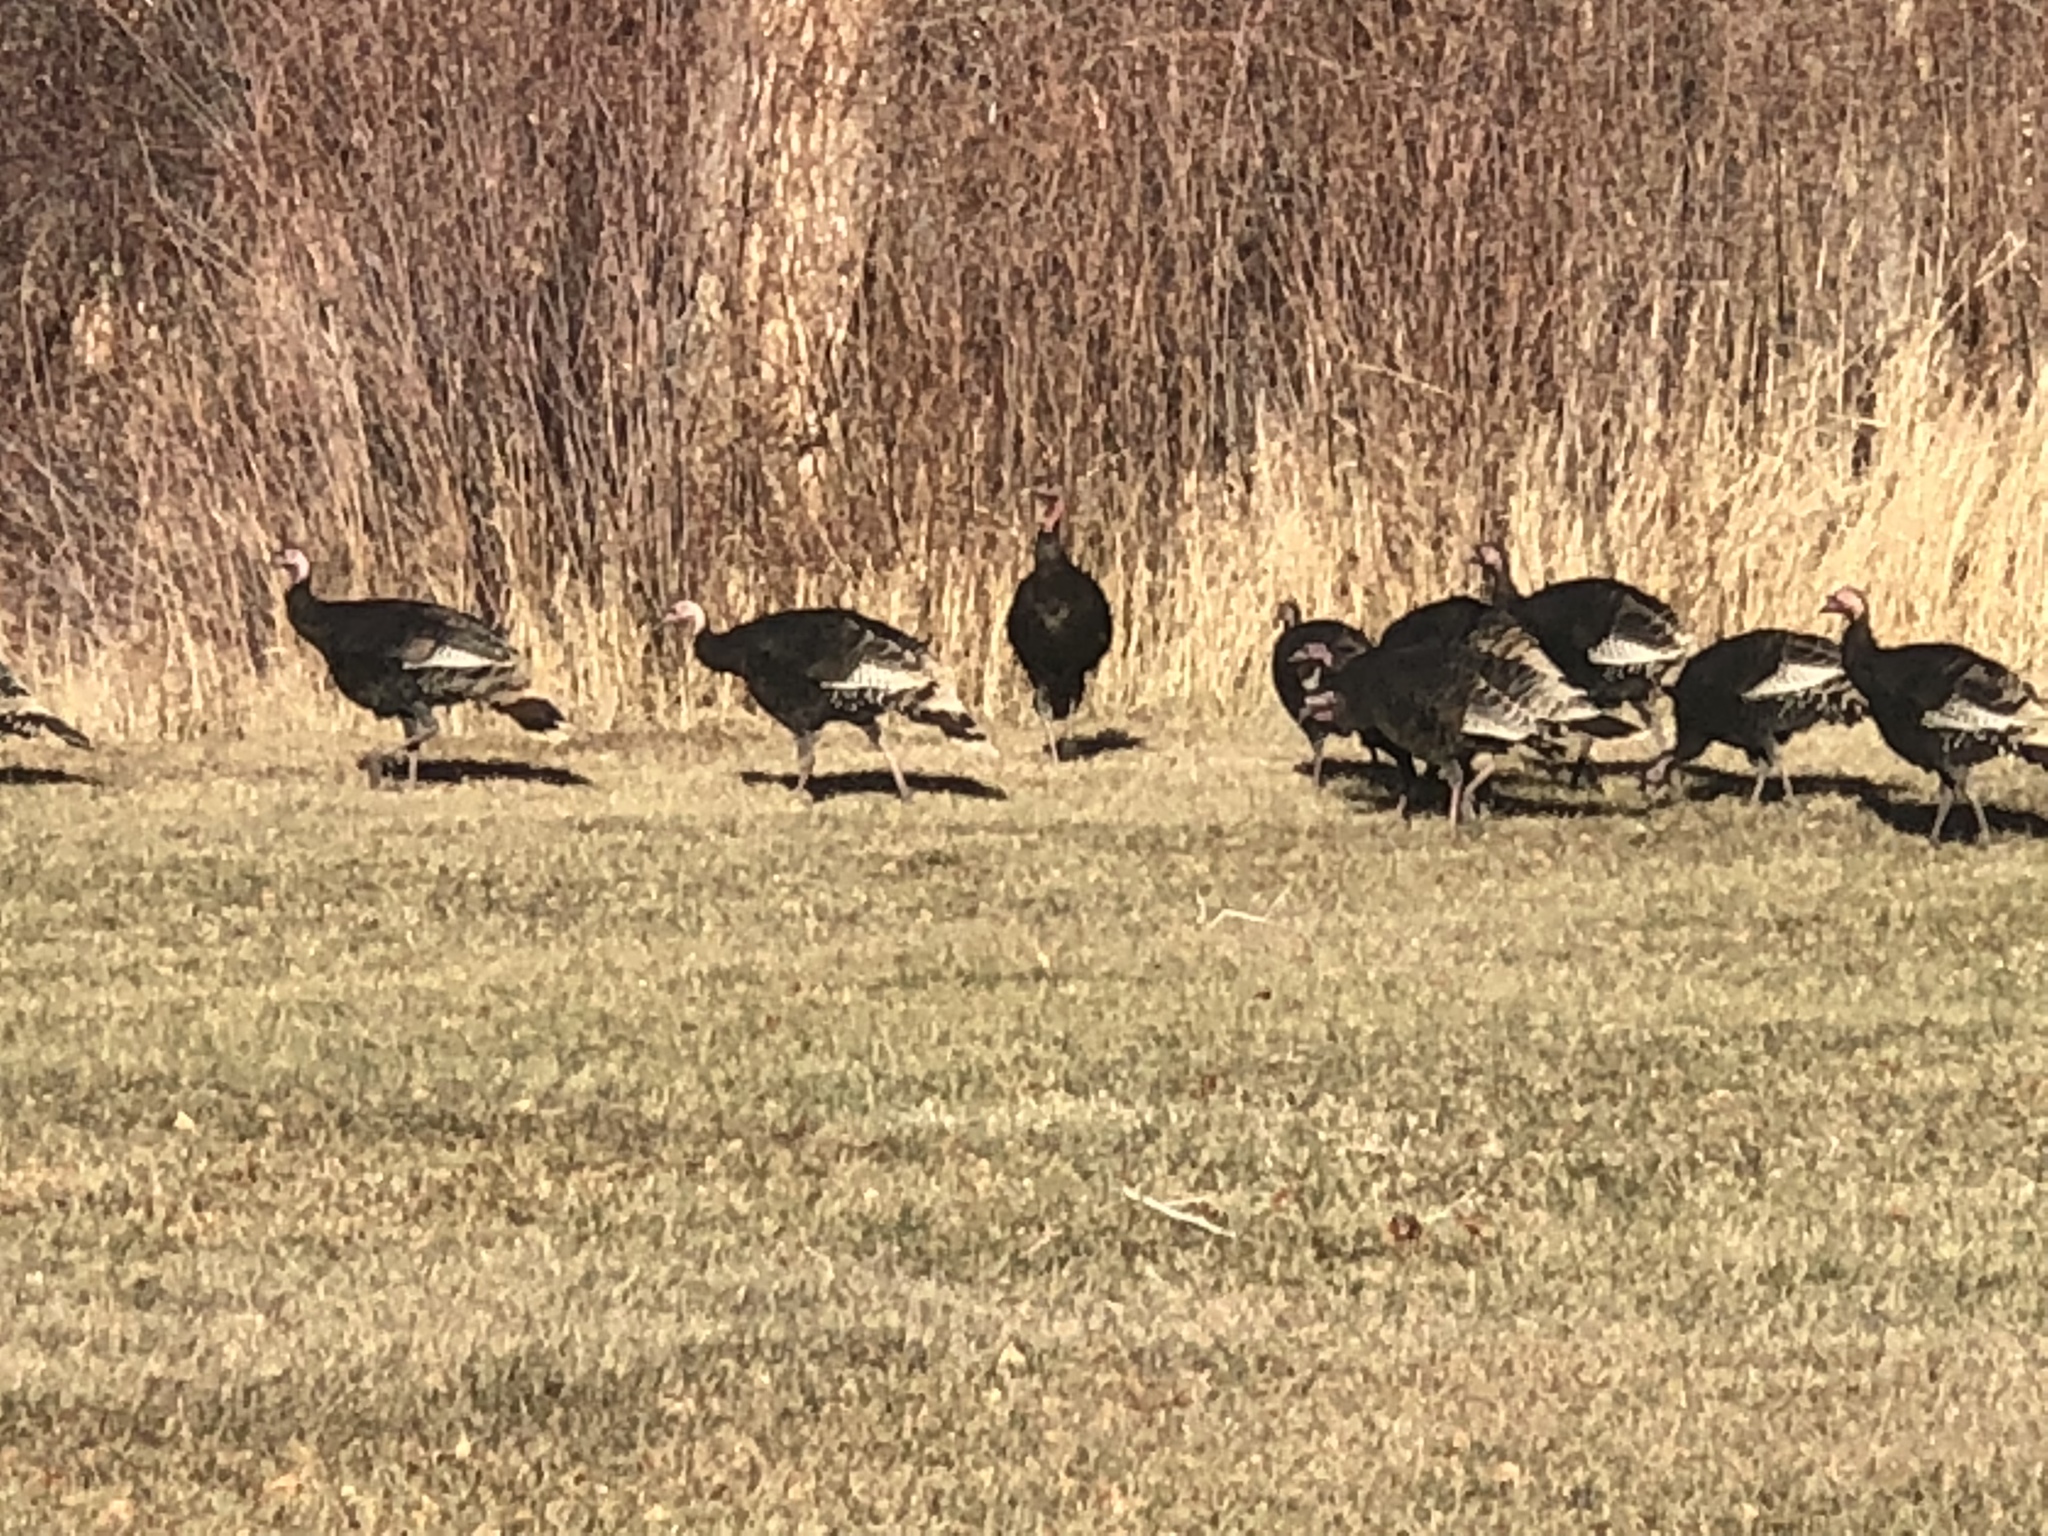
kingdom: Animalia
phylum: Chordata
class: Aves
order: Galliformes
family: Phasianidae
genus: Meleagris
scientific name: Meleagris gallopavo
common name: Wild turkey
